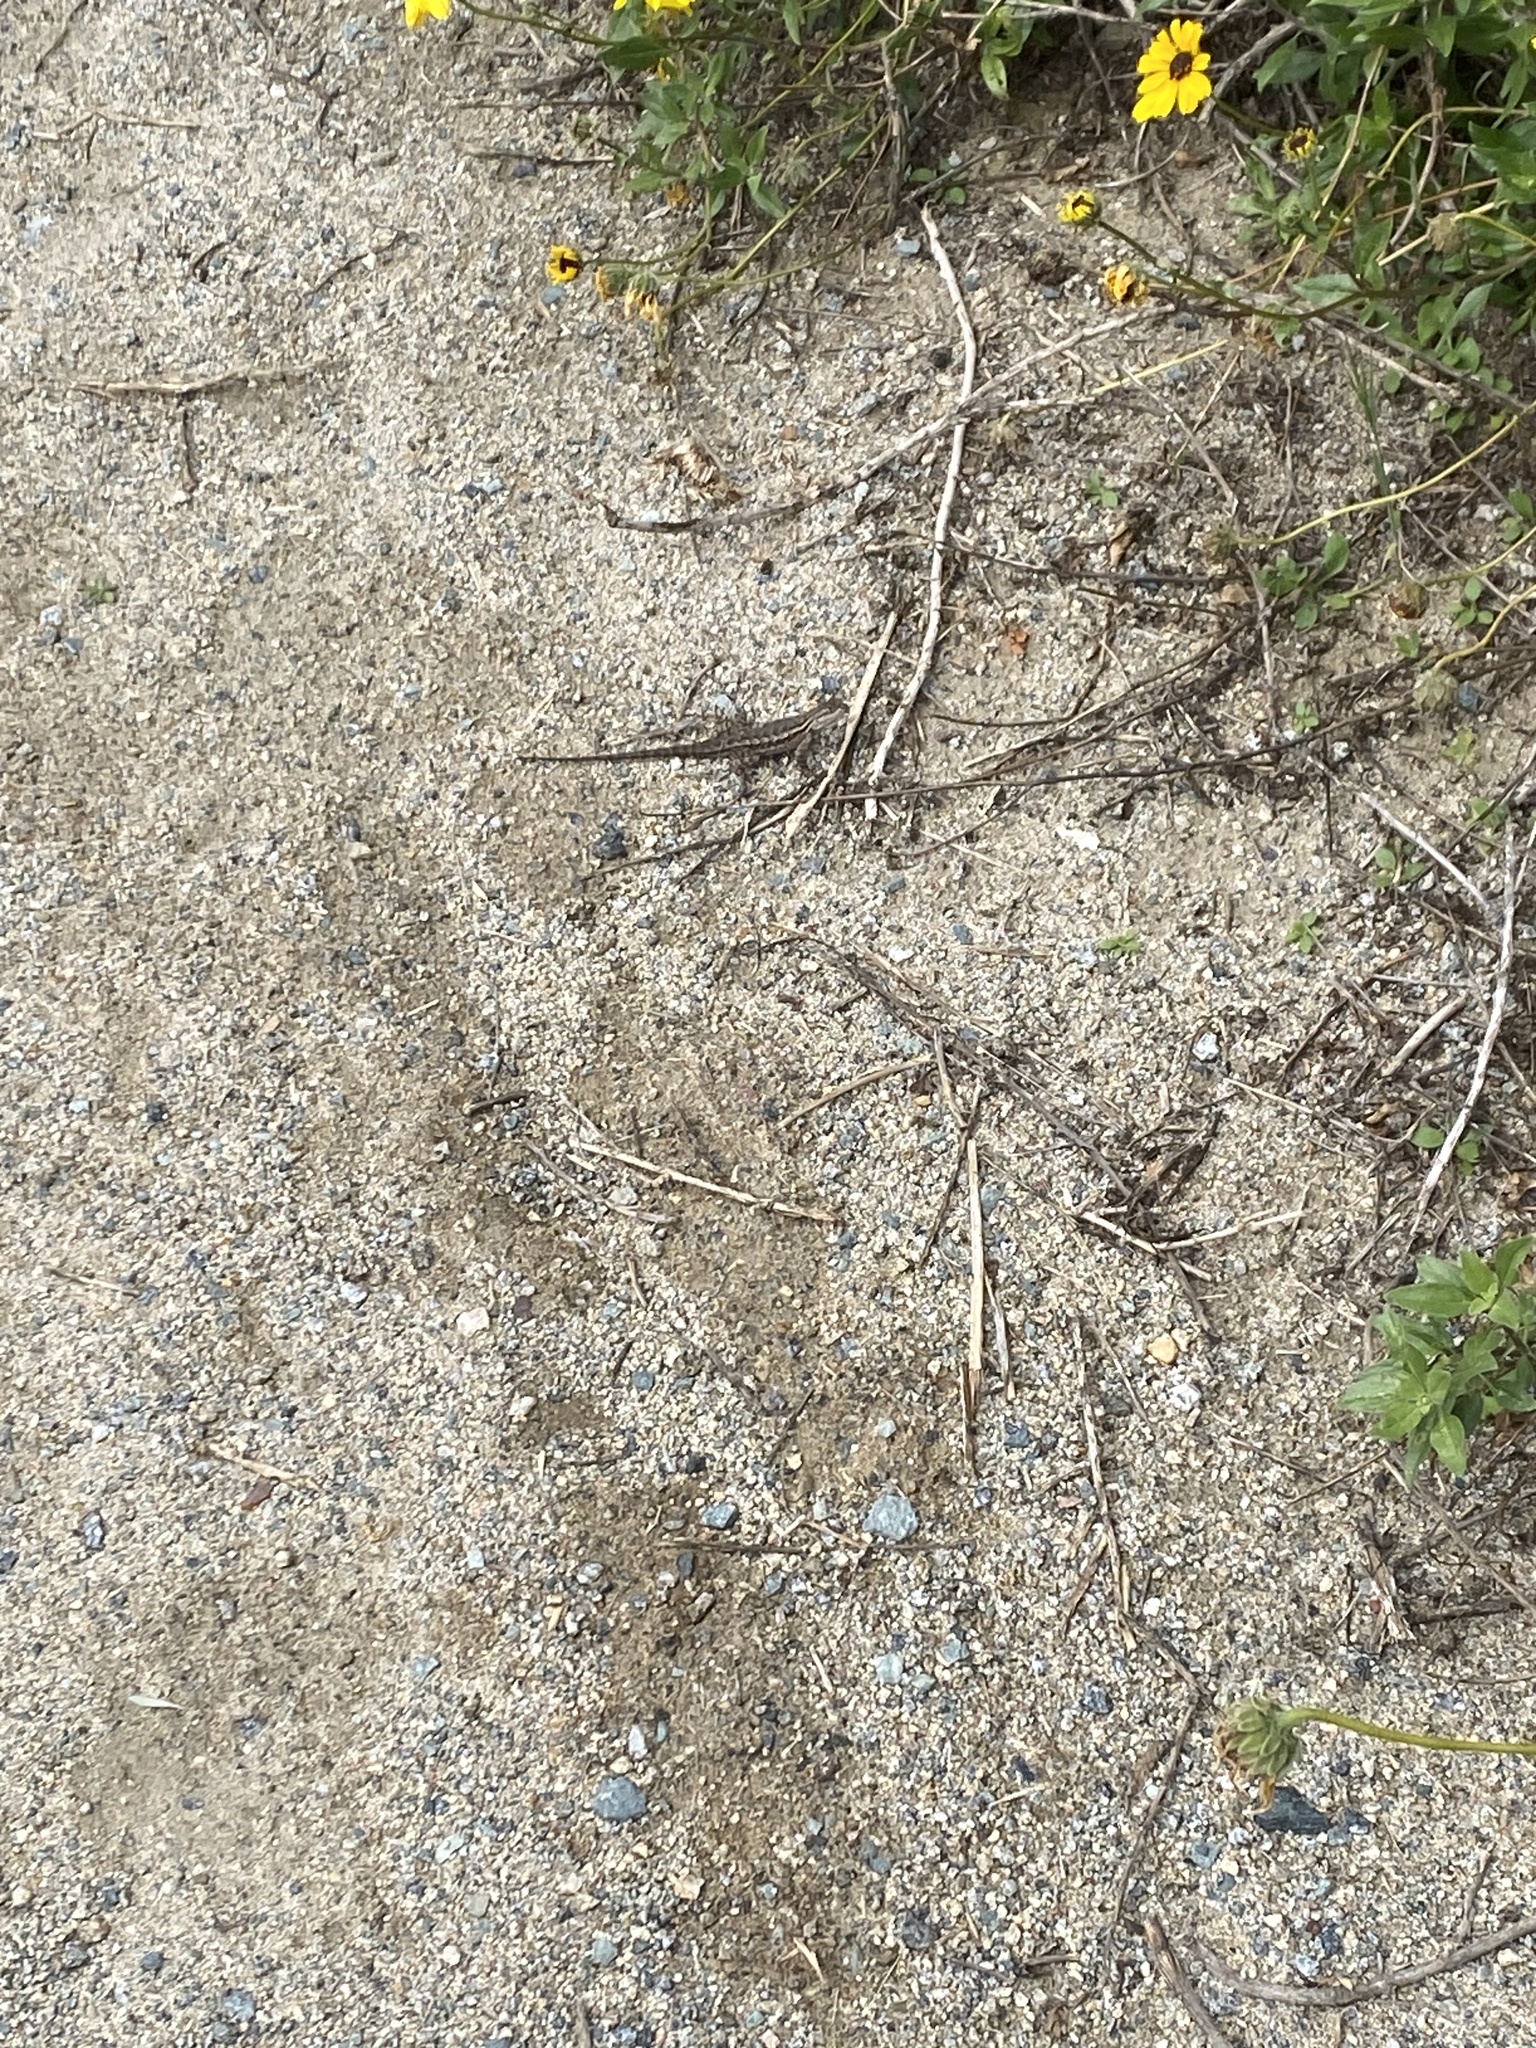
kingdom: Animalia
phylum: Chordata
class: Squamata
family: Phrynosomatidae
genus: Sceloporus
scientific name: Sceloporus occidentalis
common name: Western fence lizard
